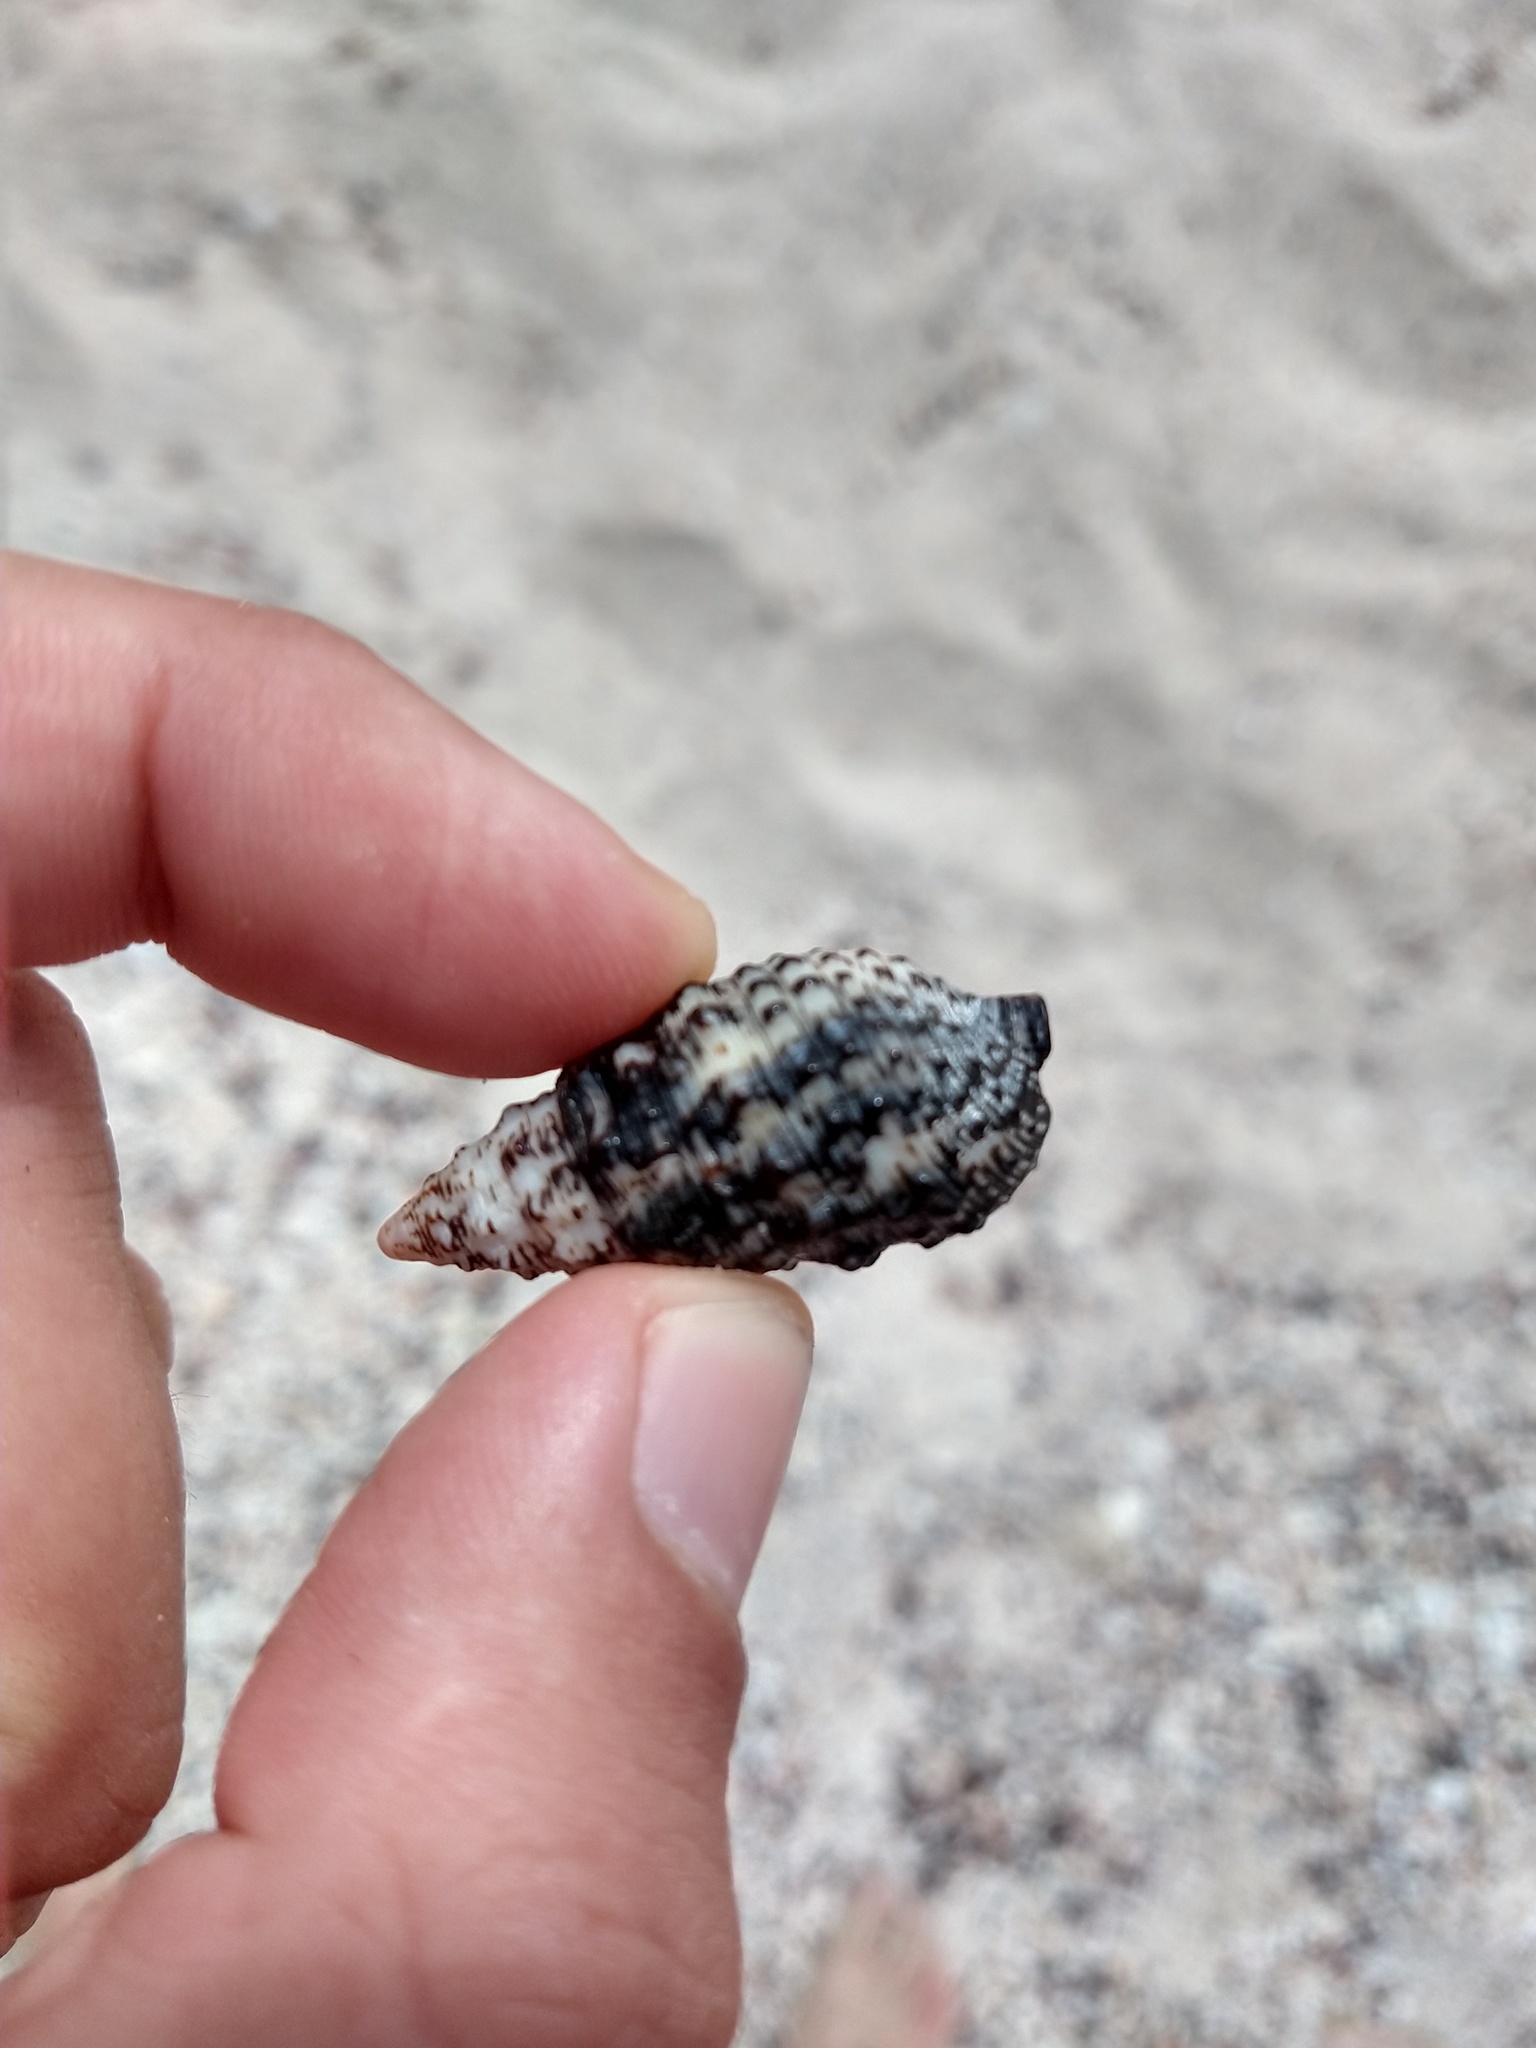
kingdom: Animalia
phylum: Mollusca
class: Gastropoda
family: Cerithiidae
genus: Cerithium
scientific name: Cerithium adustum
